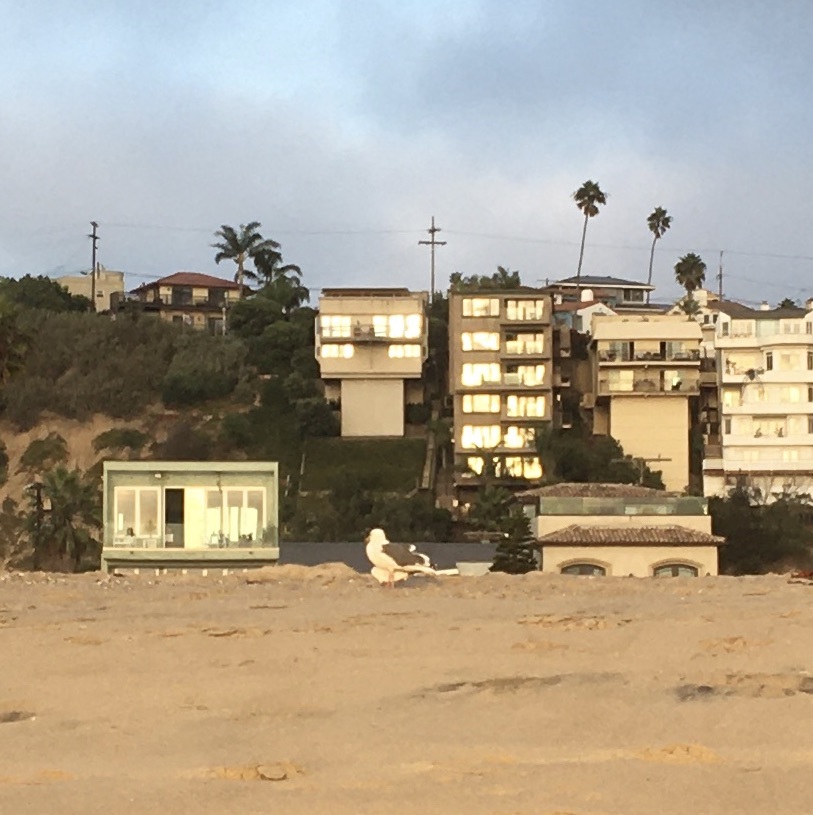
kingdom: Animalia
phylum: Chordata
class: Aves
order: Charadriiformes
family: Laridae
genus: Larus
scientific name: Larus occidentalis
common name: Western gull
